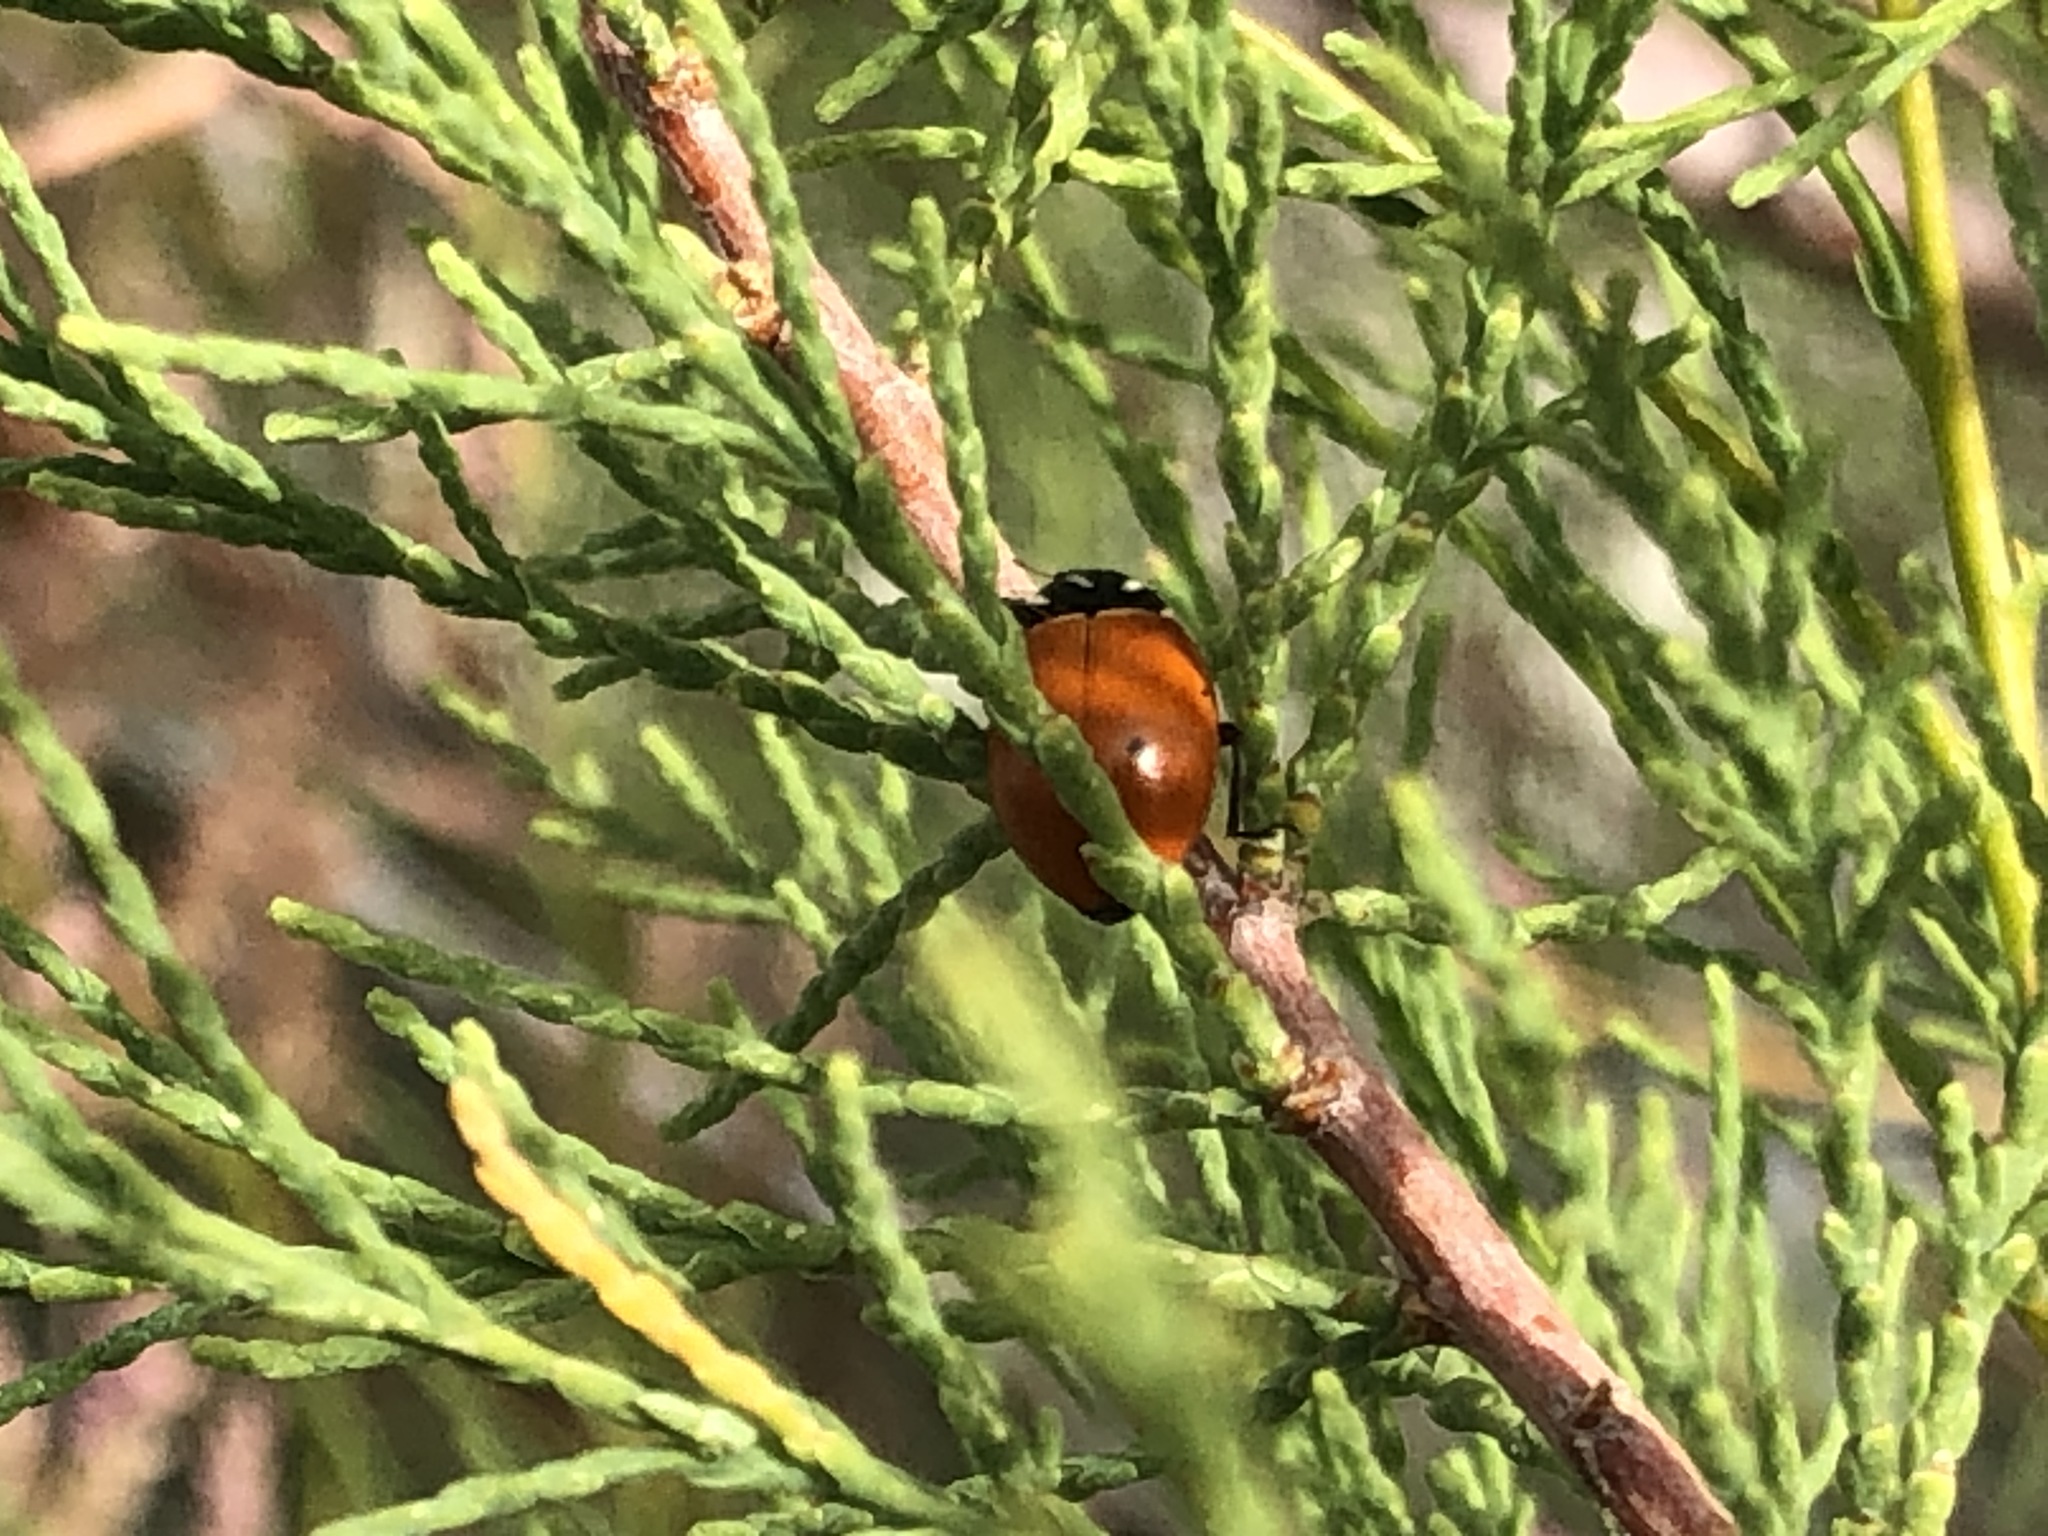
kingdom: Animalia
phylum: Arthropoda
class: Insecta
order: Coleoptera
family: Coccinellidae
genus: Cycloneda
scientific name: Cycloneda sanguinea
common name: Ladybird beetle
